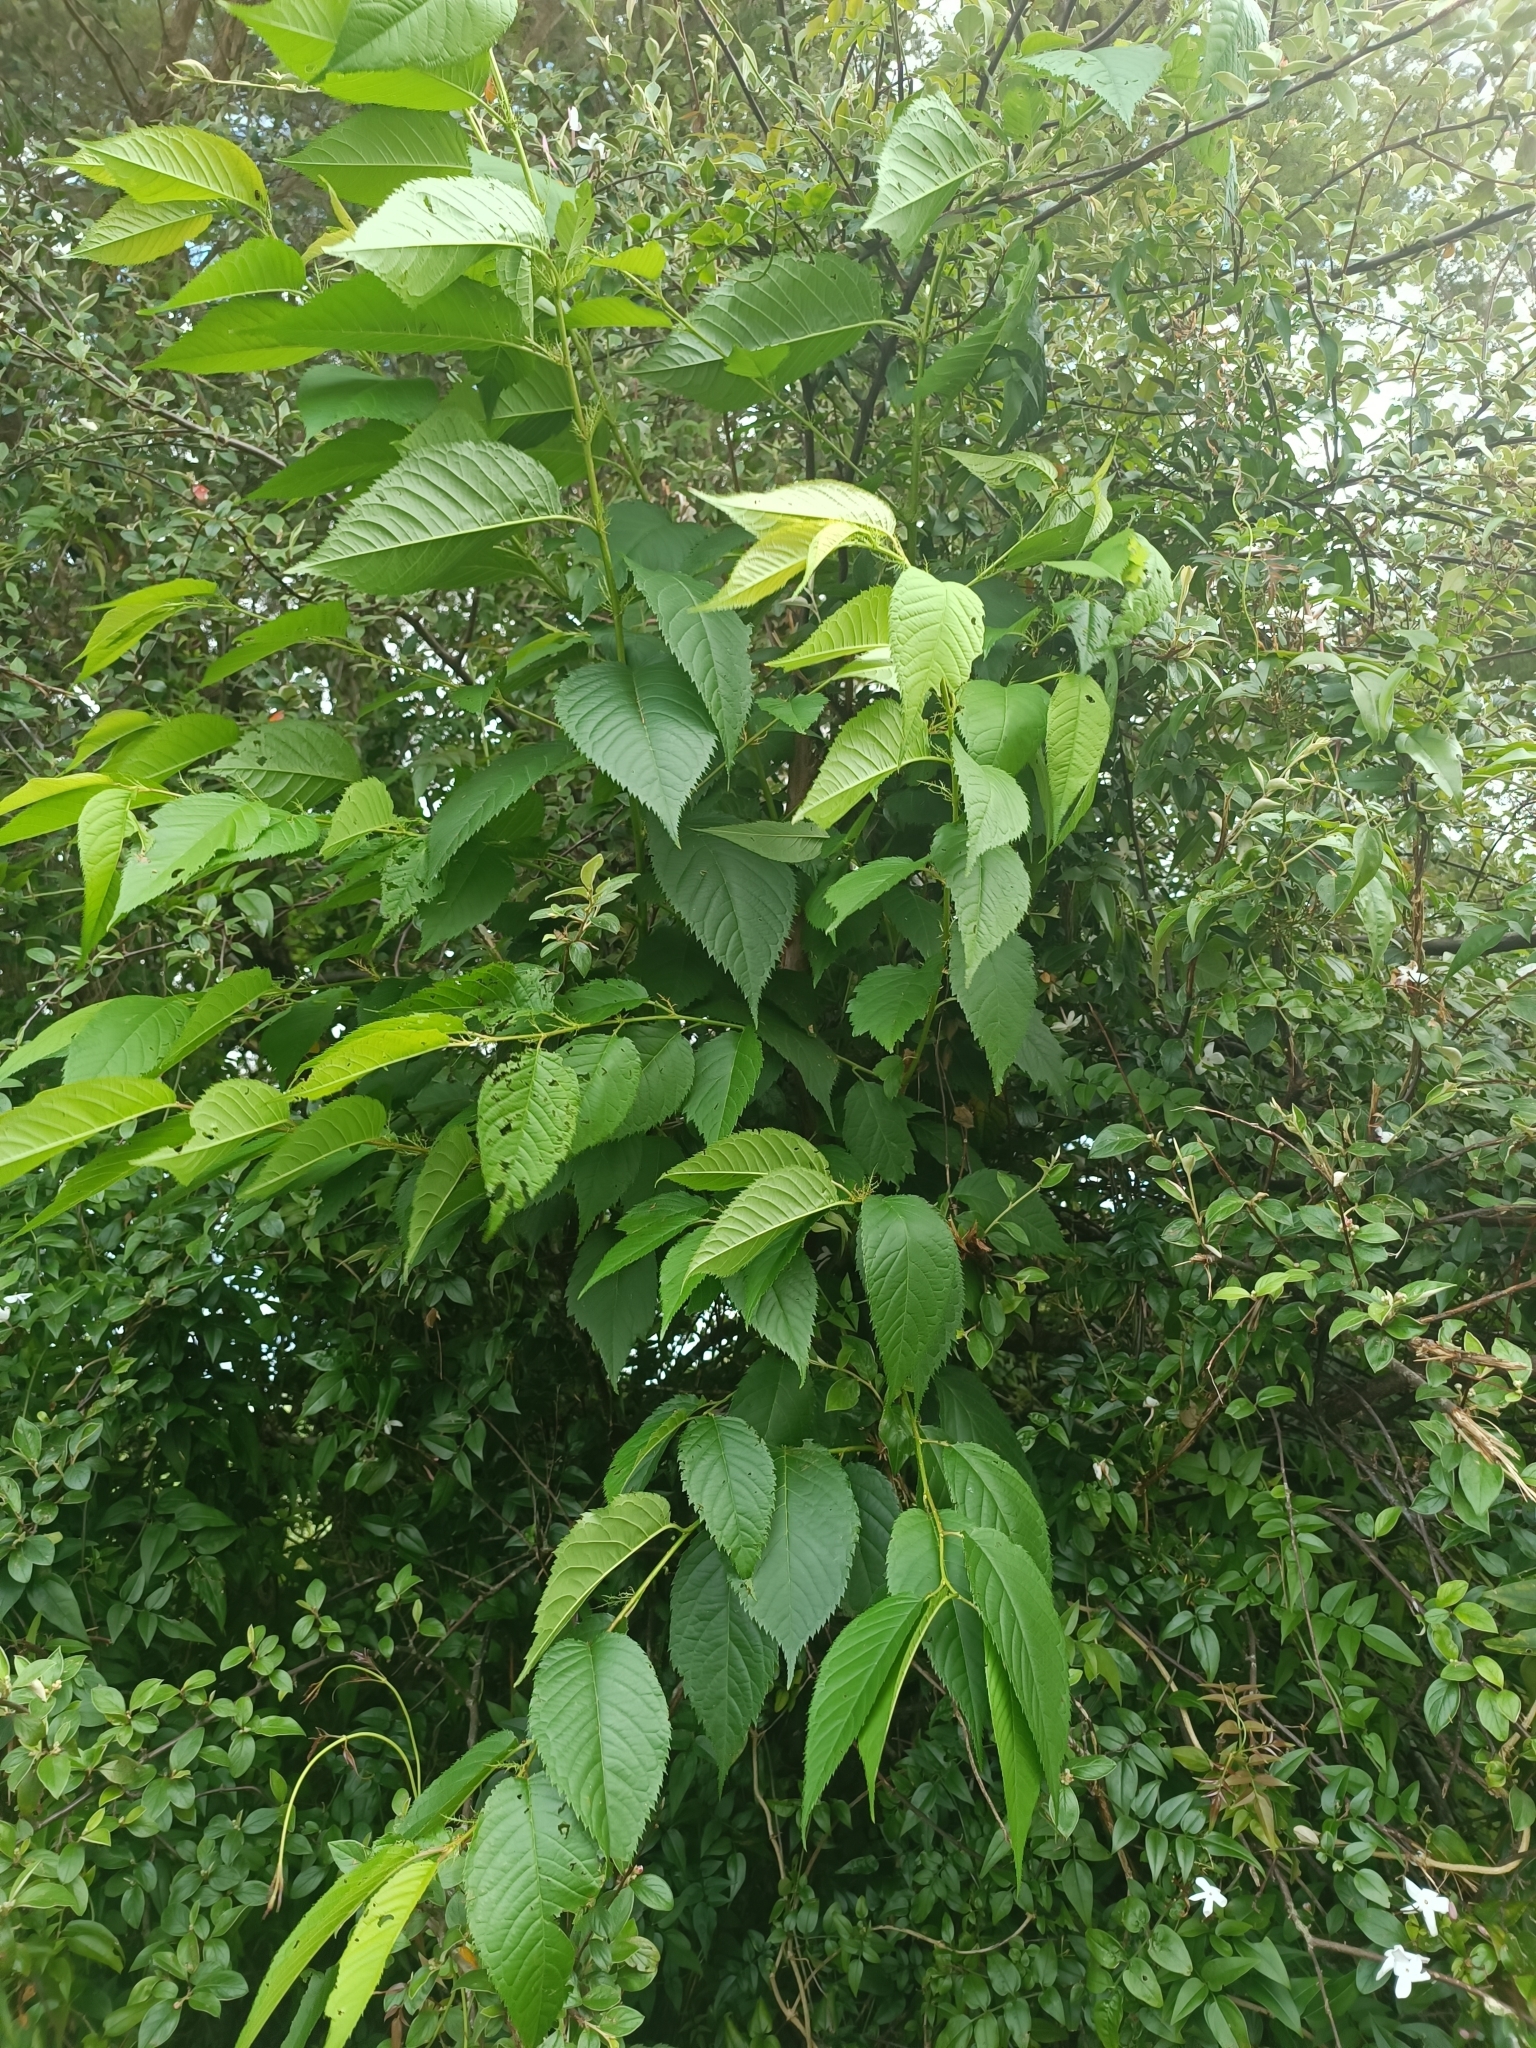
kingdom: Plantae
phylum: Tracheophyta
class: Magnoliopsida
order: Rosales
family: Rosaceae
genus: Prunus
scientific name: Prunus campanulata
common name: Taiwan flowering cherry
